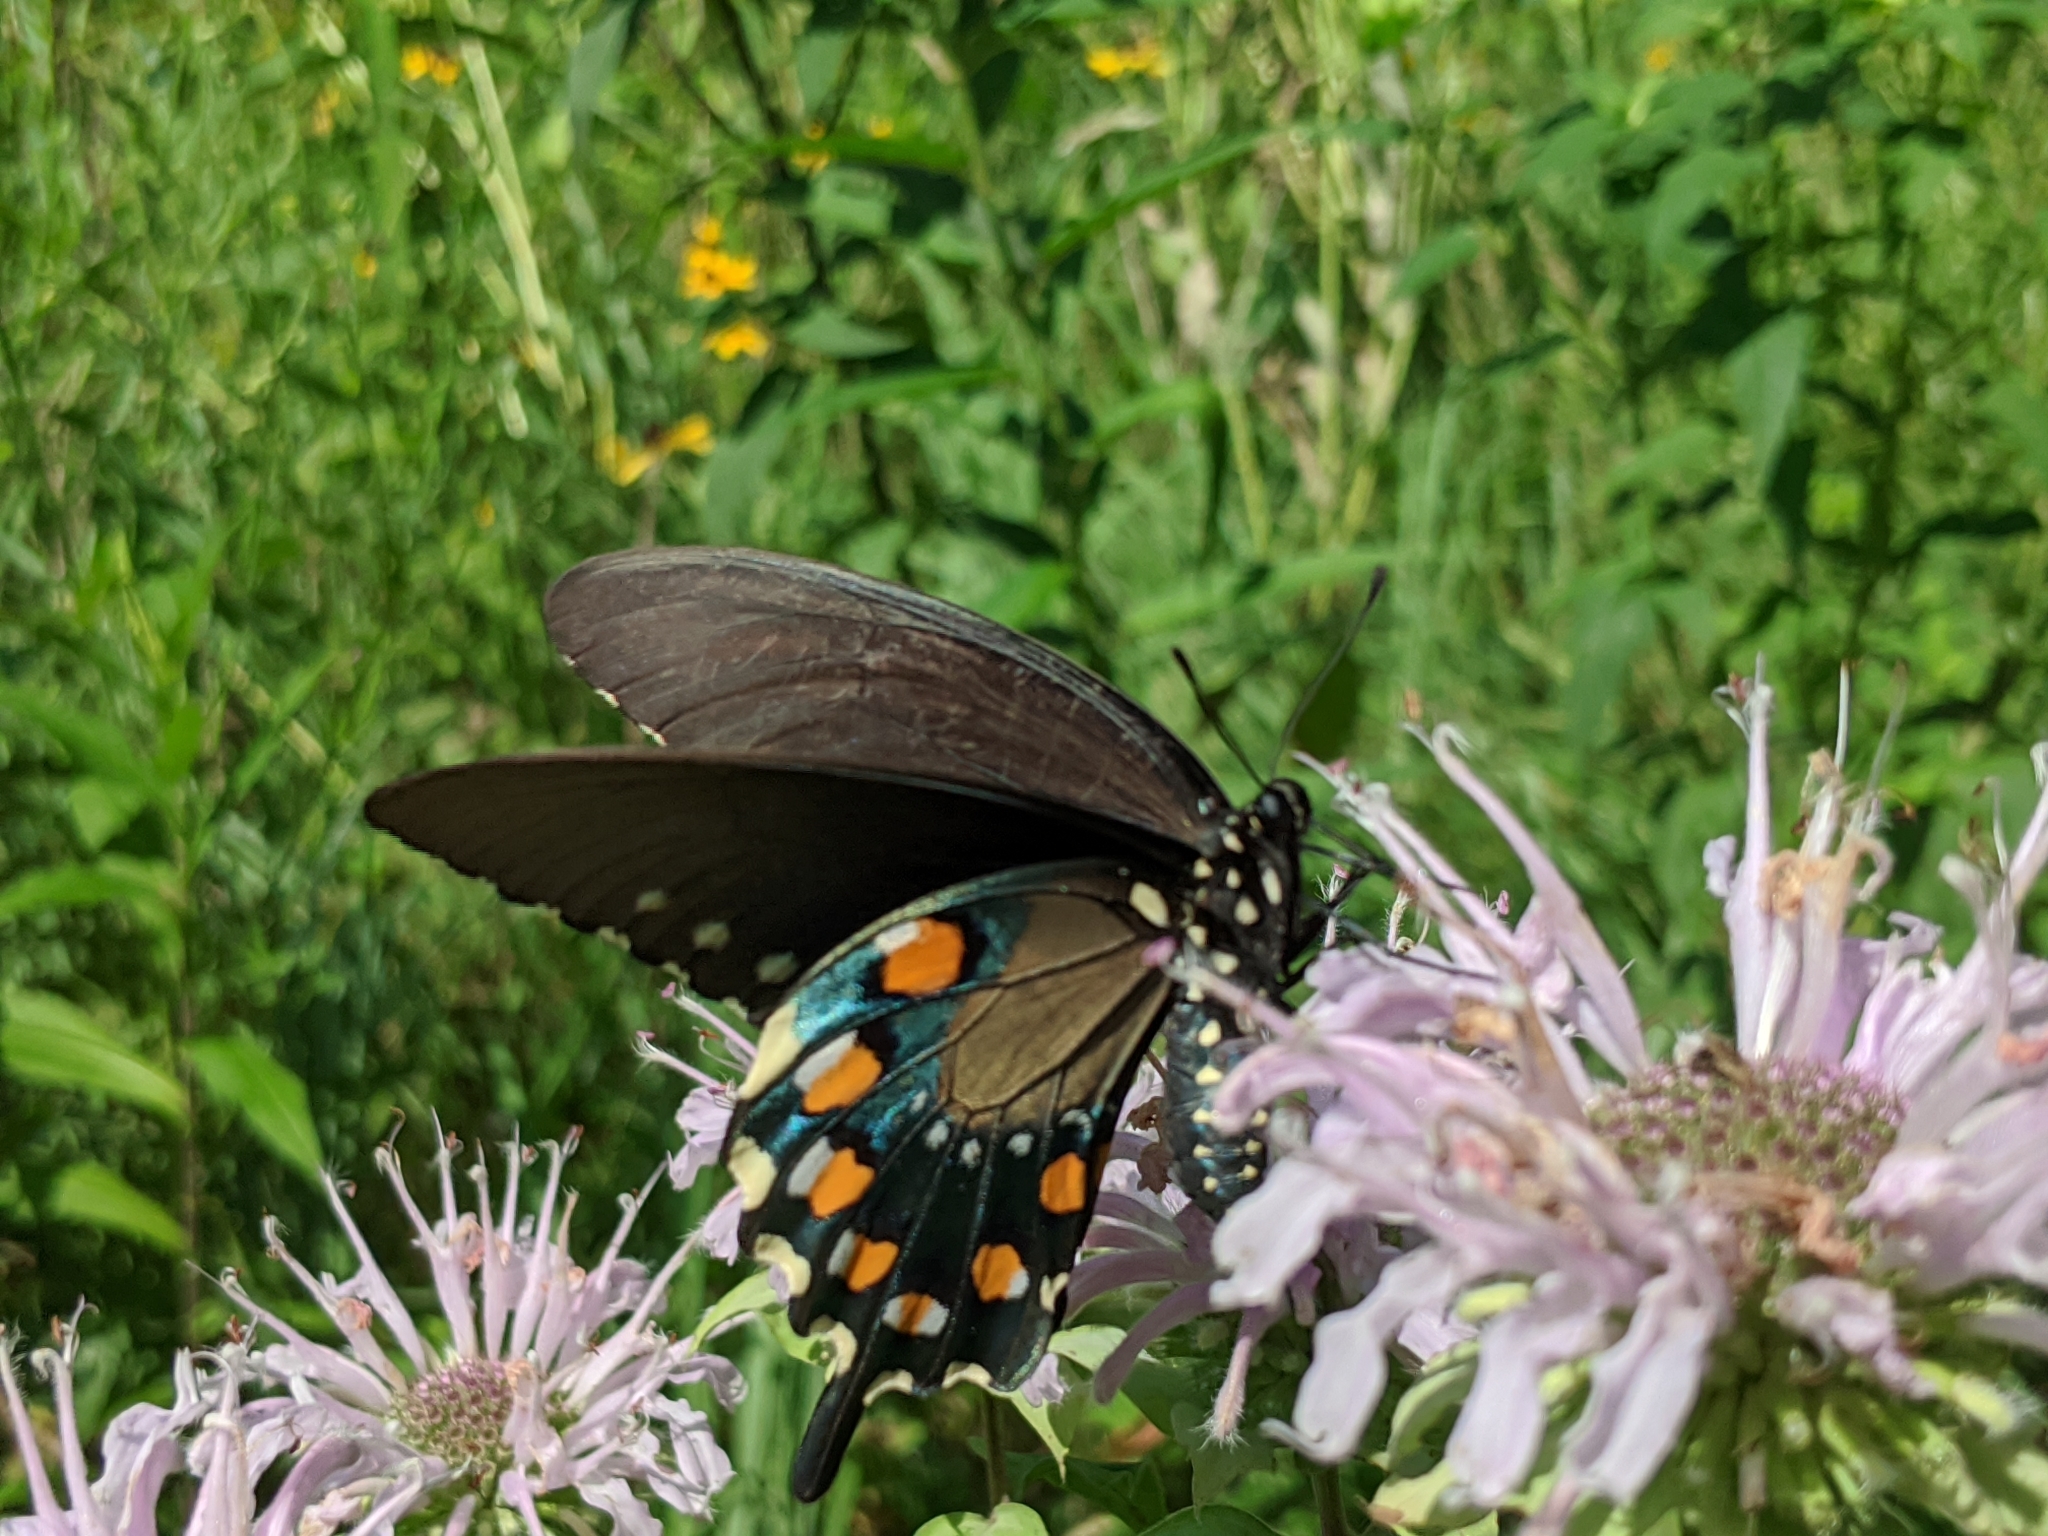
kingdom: Animalia
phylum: Arthropoda
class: Insecta
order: Lepidoptera
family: Papilionidae
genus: Battus
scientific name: Battus philenor
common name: Pipevine swallowtail
